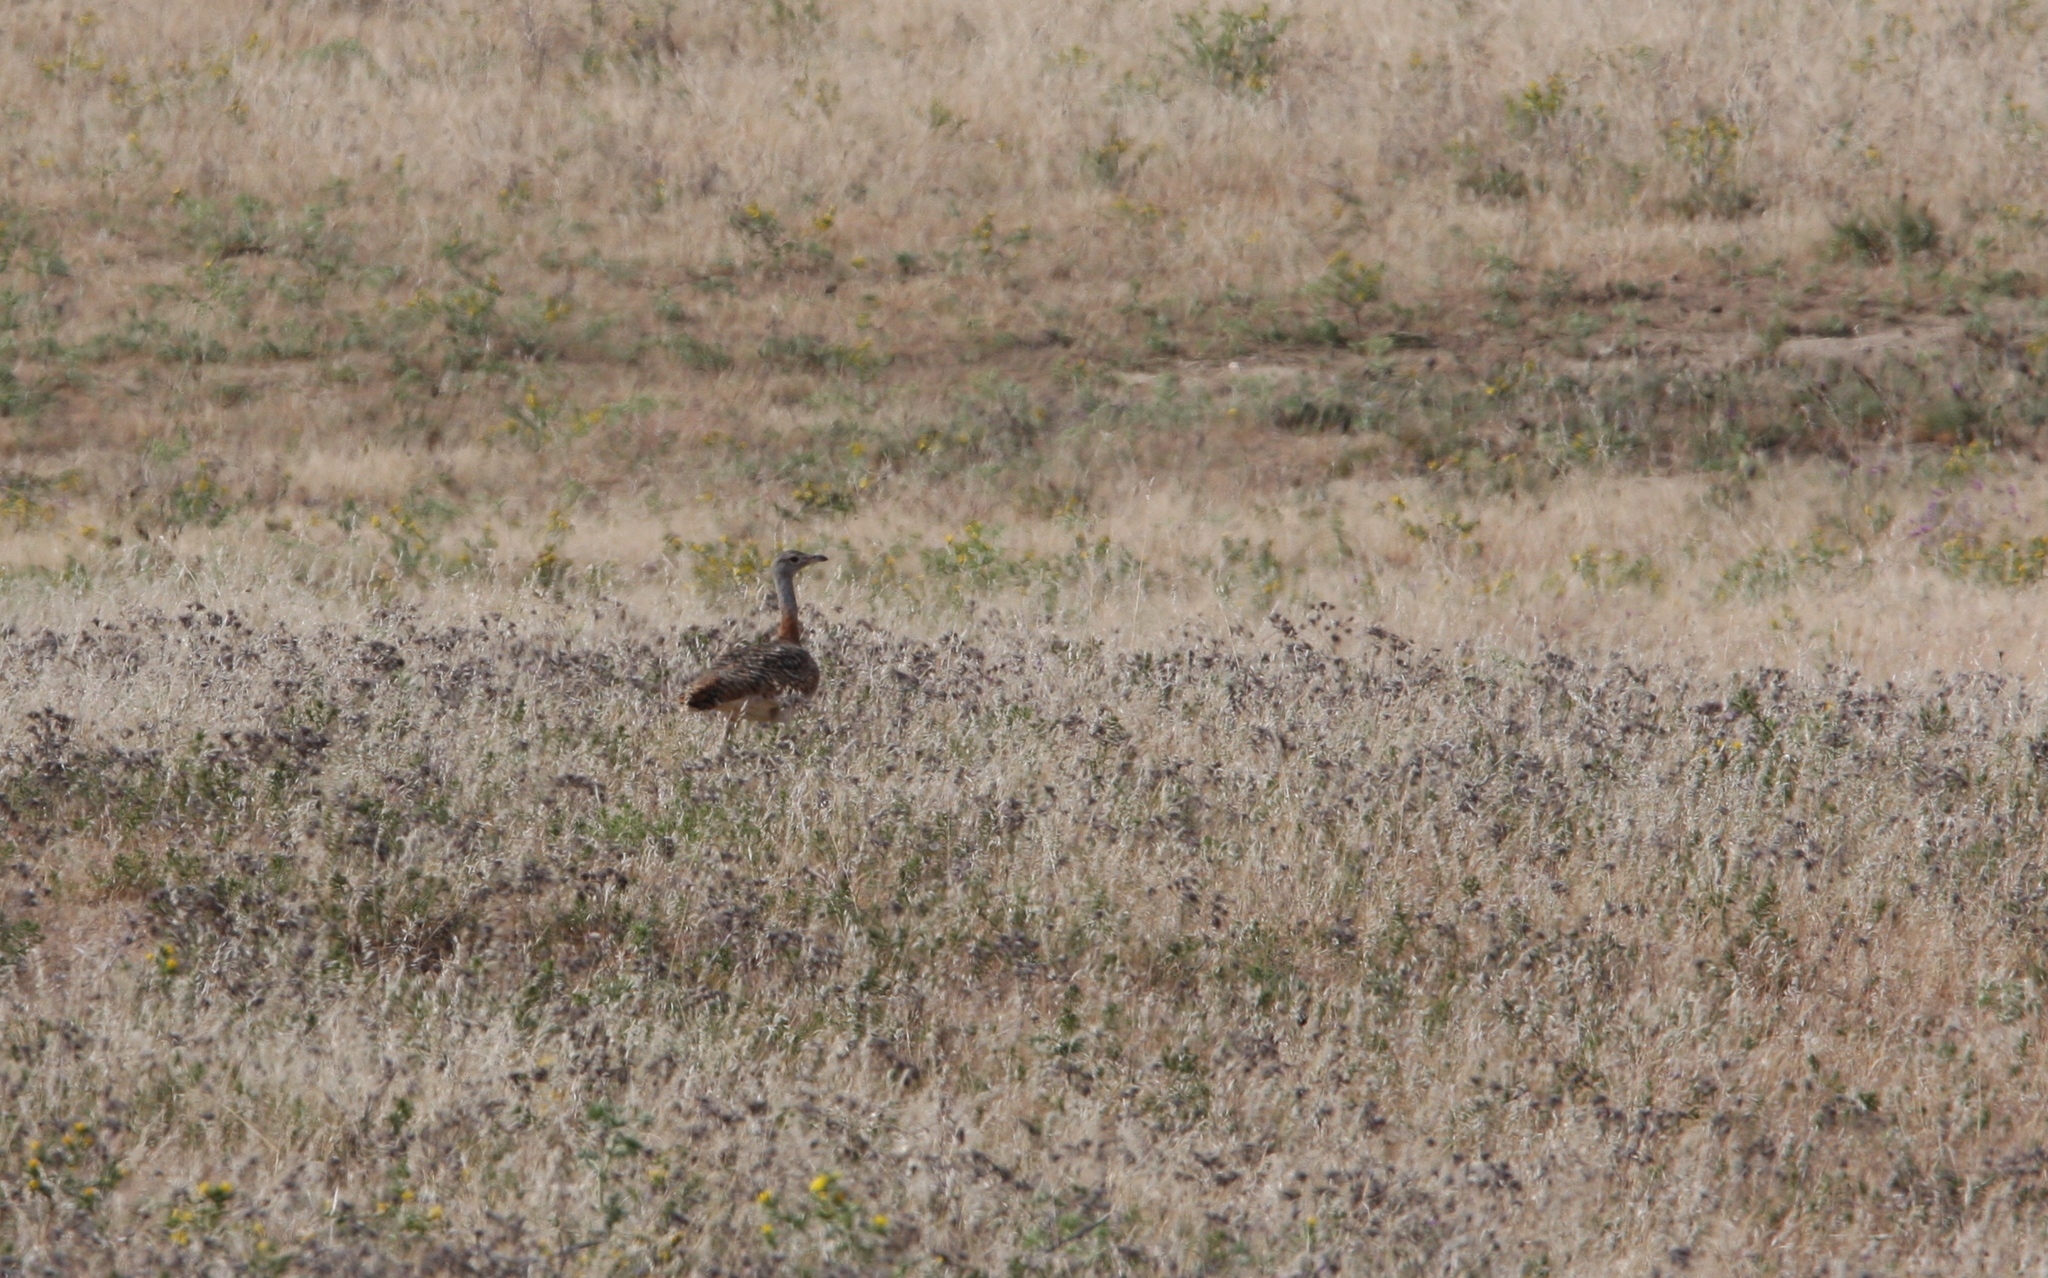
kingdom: Animalia
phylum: Chordata
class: Aves
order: Otidiformes
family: Otididae
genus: Otis
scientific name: Otis tarda
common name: Great bustard
